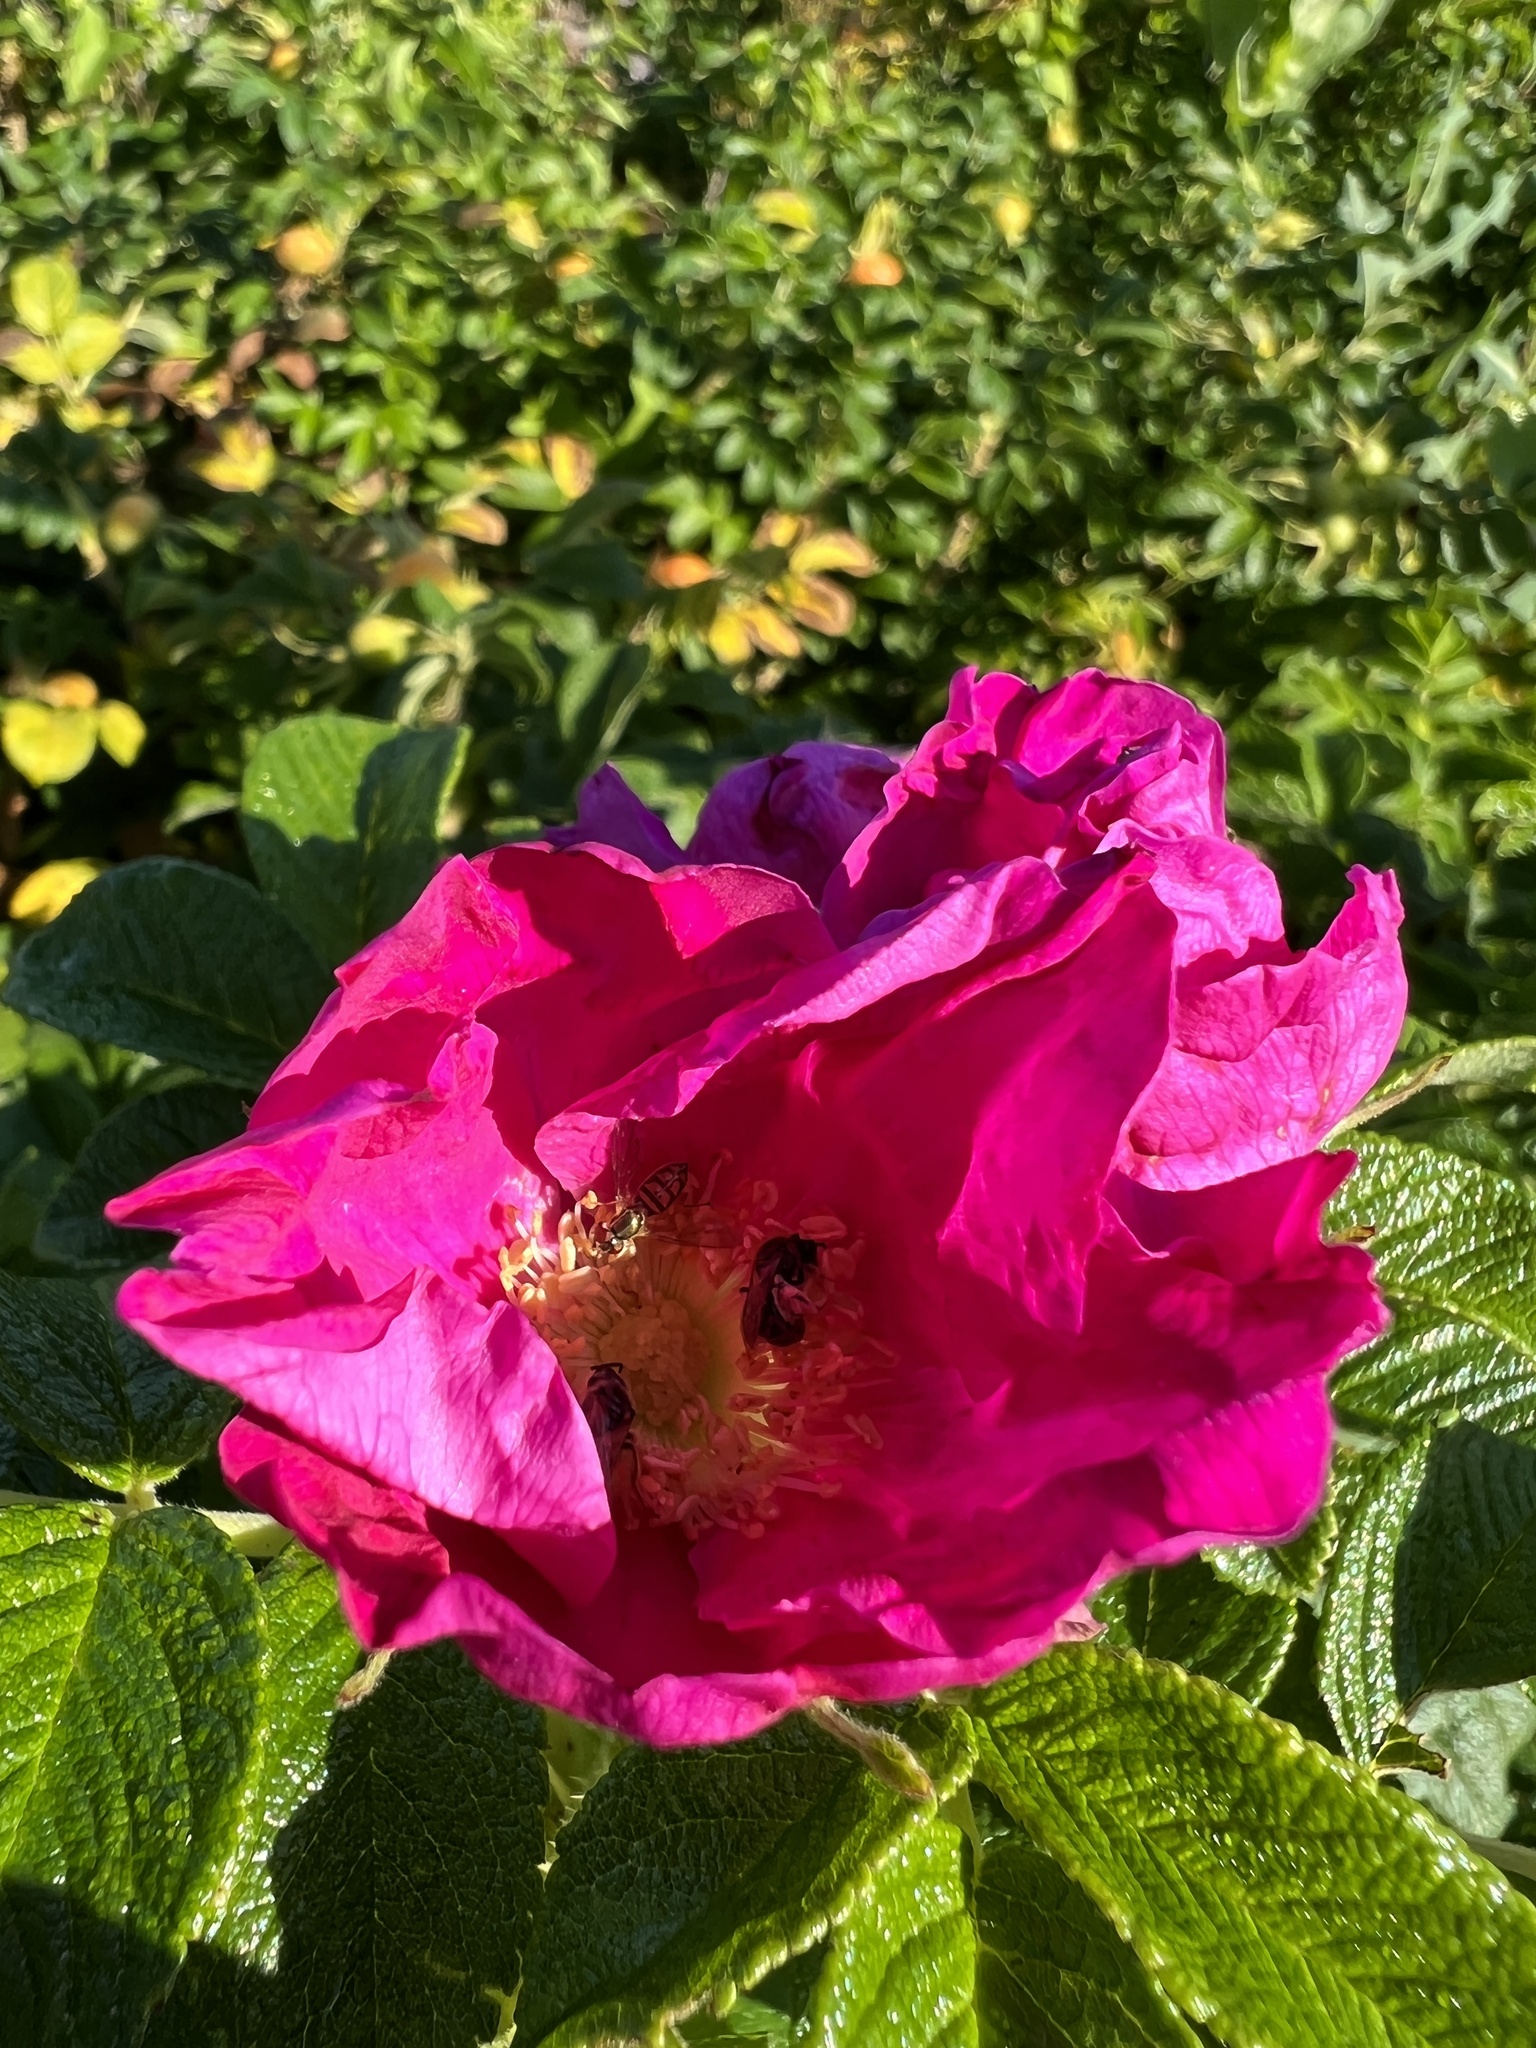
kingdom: Plantae
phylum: Tracheophyta
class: Magnoliopsida
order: Rosales
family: Rosaceae
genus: Rosa
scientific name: Rosa rugosa
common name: Japanese rose
